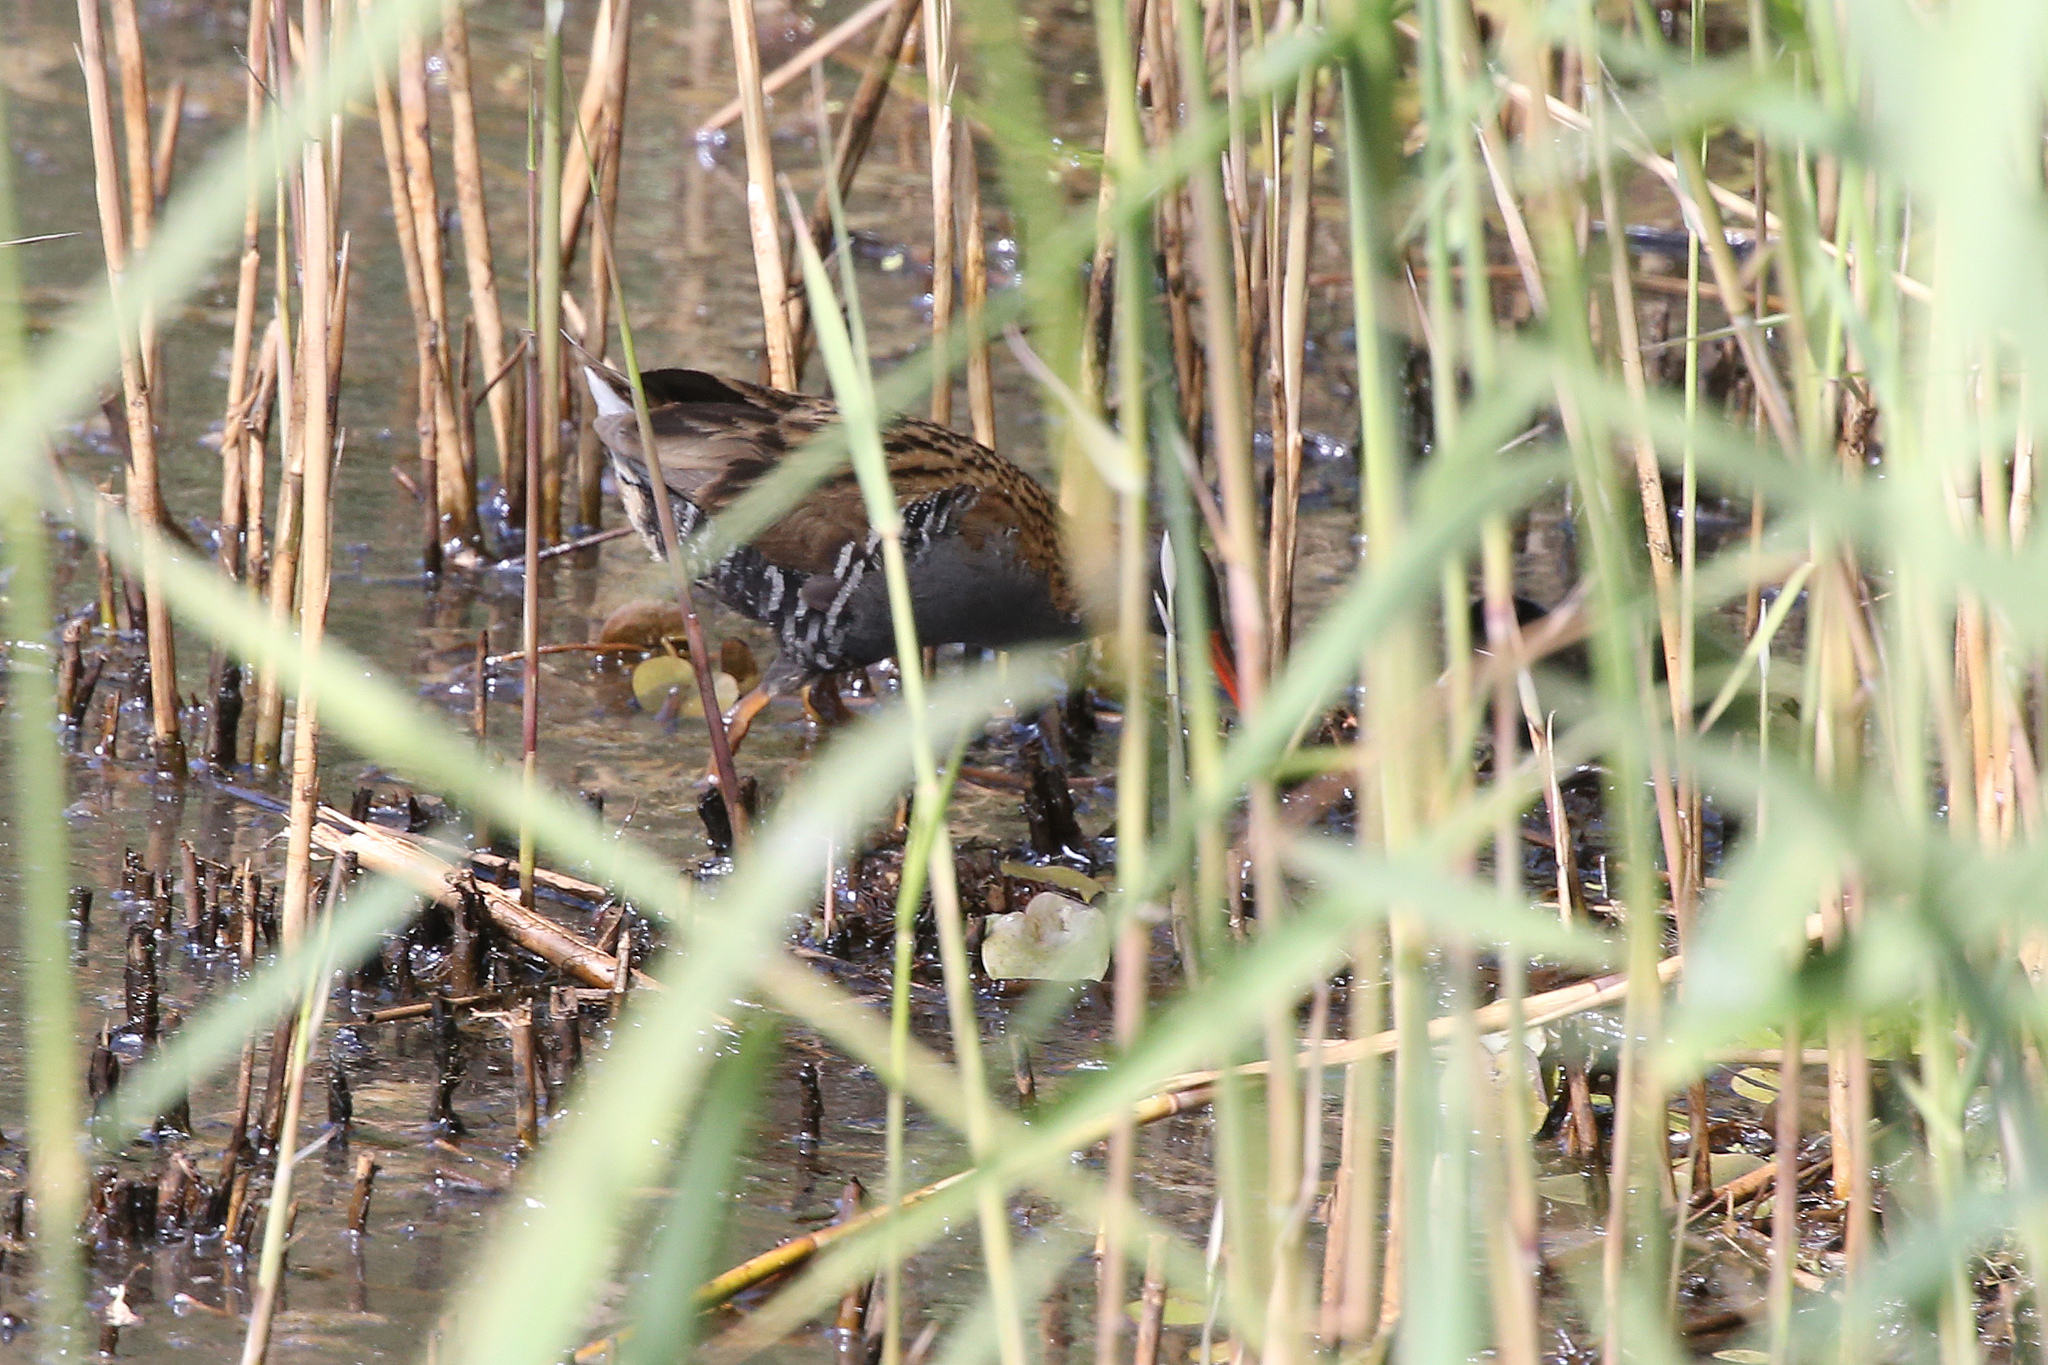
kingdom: Animalia
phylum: Chordata
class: Aves
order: Gruiformes
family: Rallidae
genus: Rallus
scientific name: Rallus aquaticus
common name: Water rail
